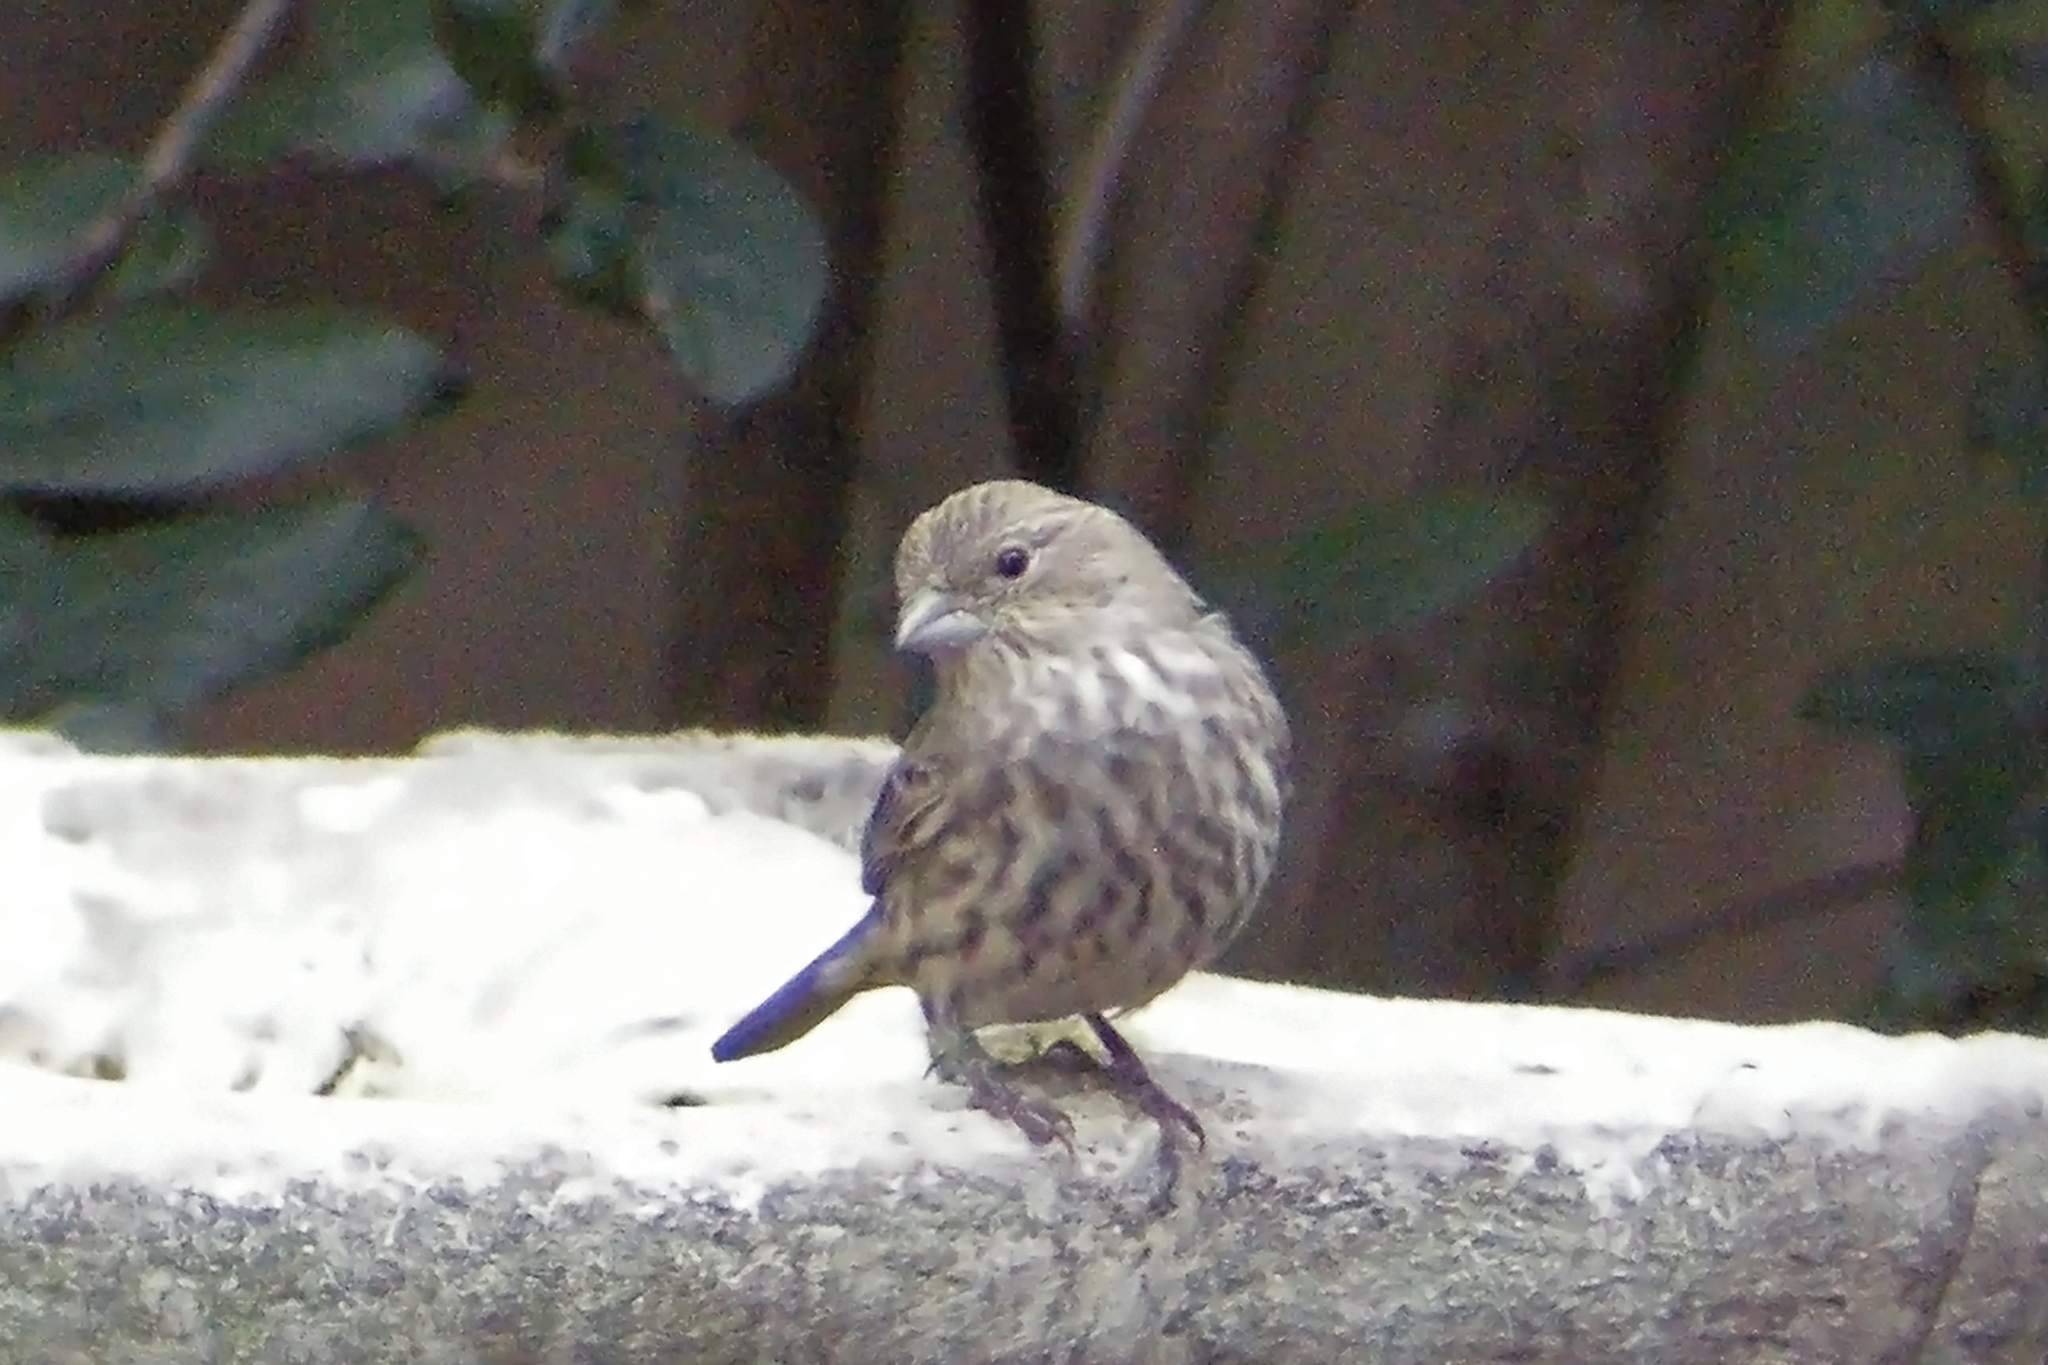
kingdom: Animalia
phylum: Chordata
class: Aves
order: Passeriformes
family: Fringillidae
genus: Haemorhous
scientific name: Haemorhous mexicanus
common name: House finch
